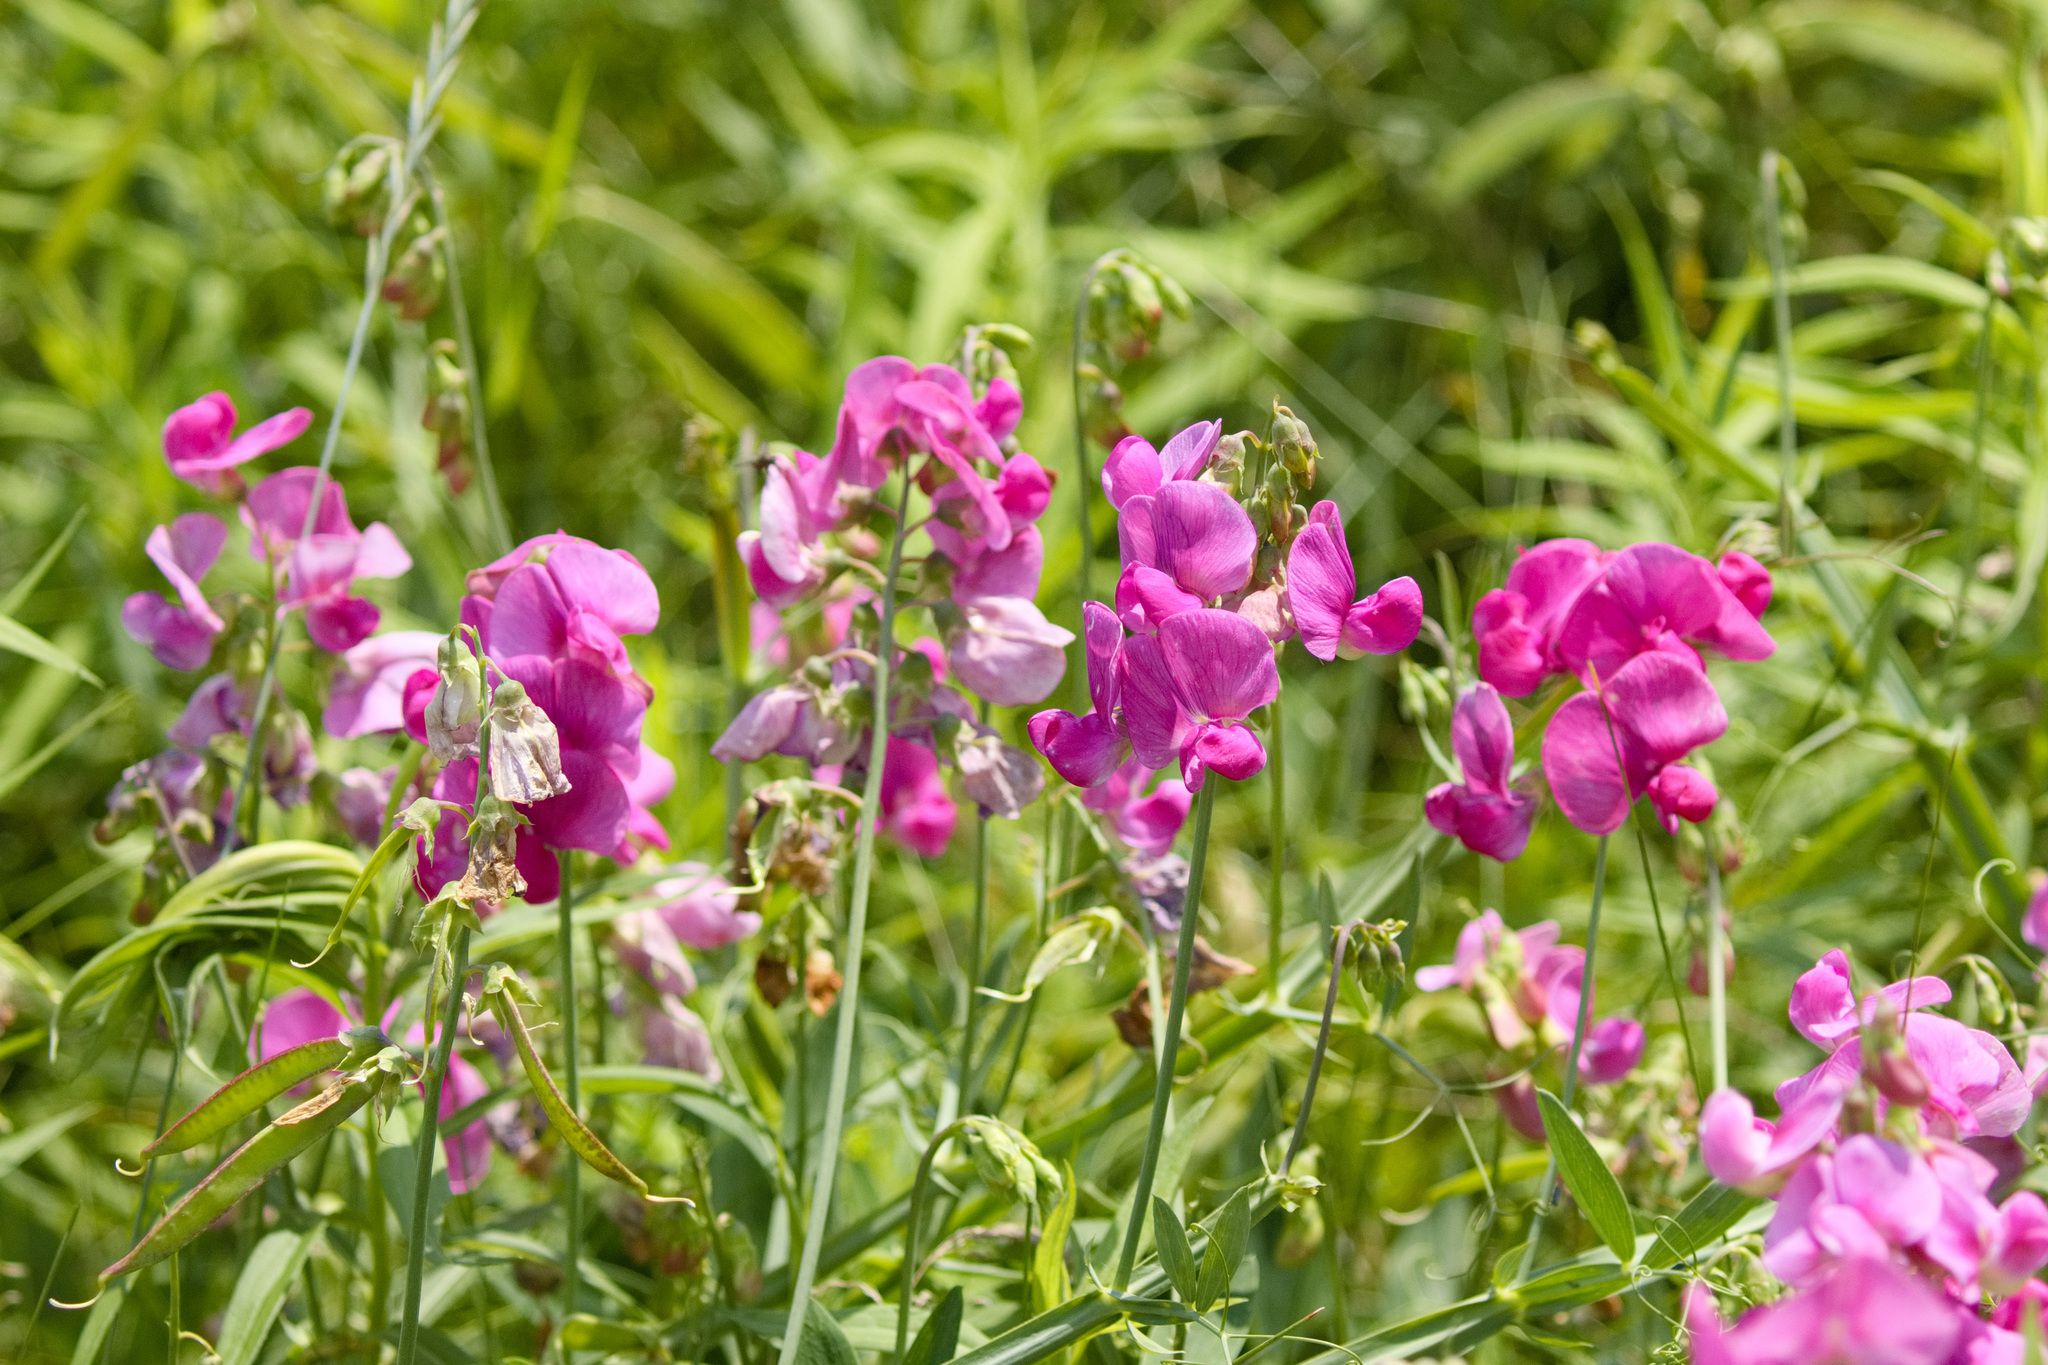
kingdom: Plantae
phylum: Tracheophyta
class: Magnoliopsida
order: Fabales
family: Fabaceae
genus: Lathyrus
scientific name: Lathyrus latifolius
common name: Perennial pea
